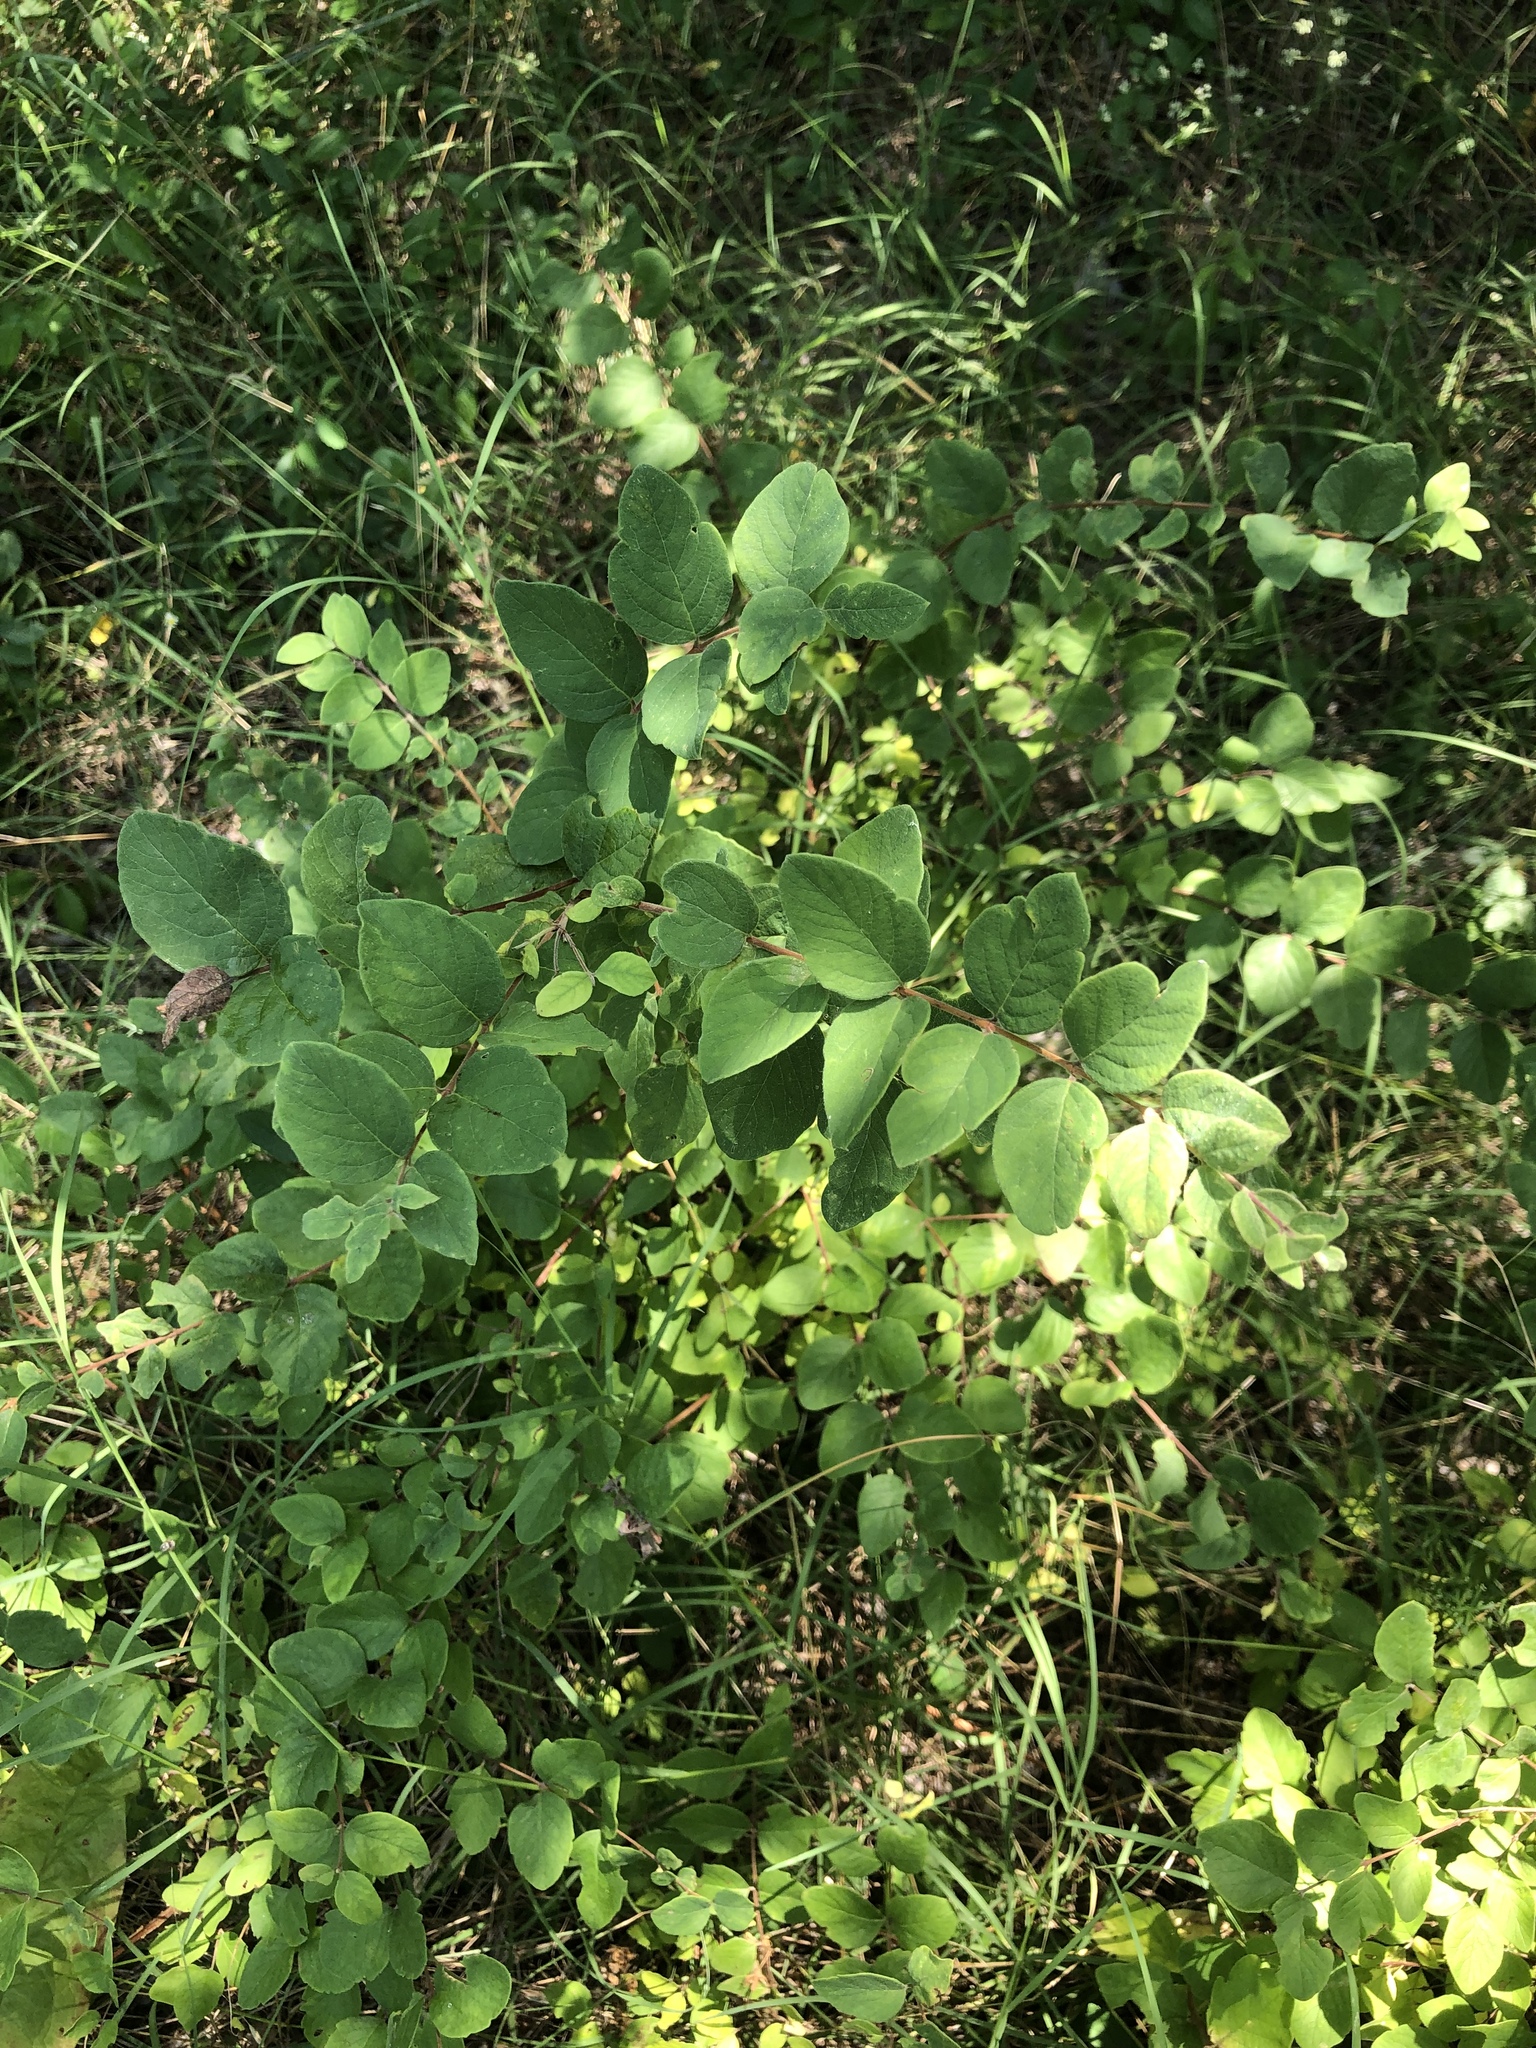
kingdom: Plantae
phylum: Tracheophyta
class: Magnoliopsida
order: Dipsacales
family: Caprifoliaceae
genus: Symphoricarpos
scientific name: Symphoricarpos orbiculatus
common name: Coralberry
